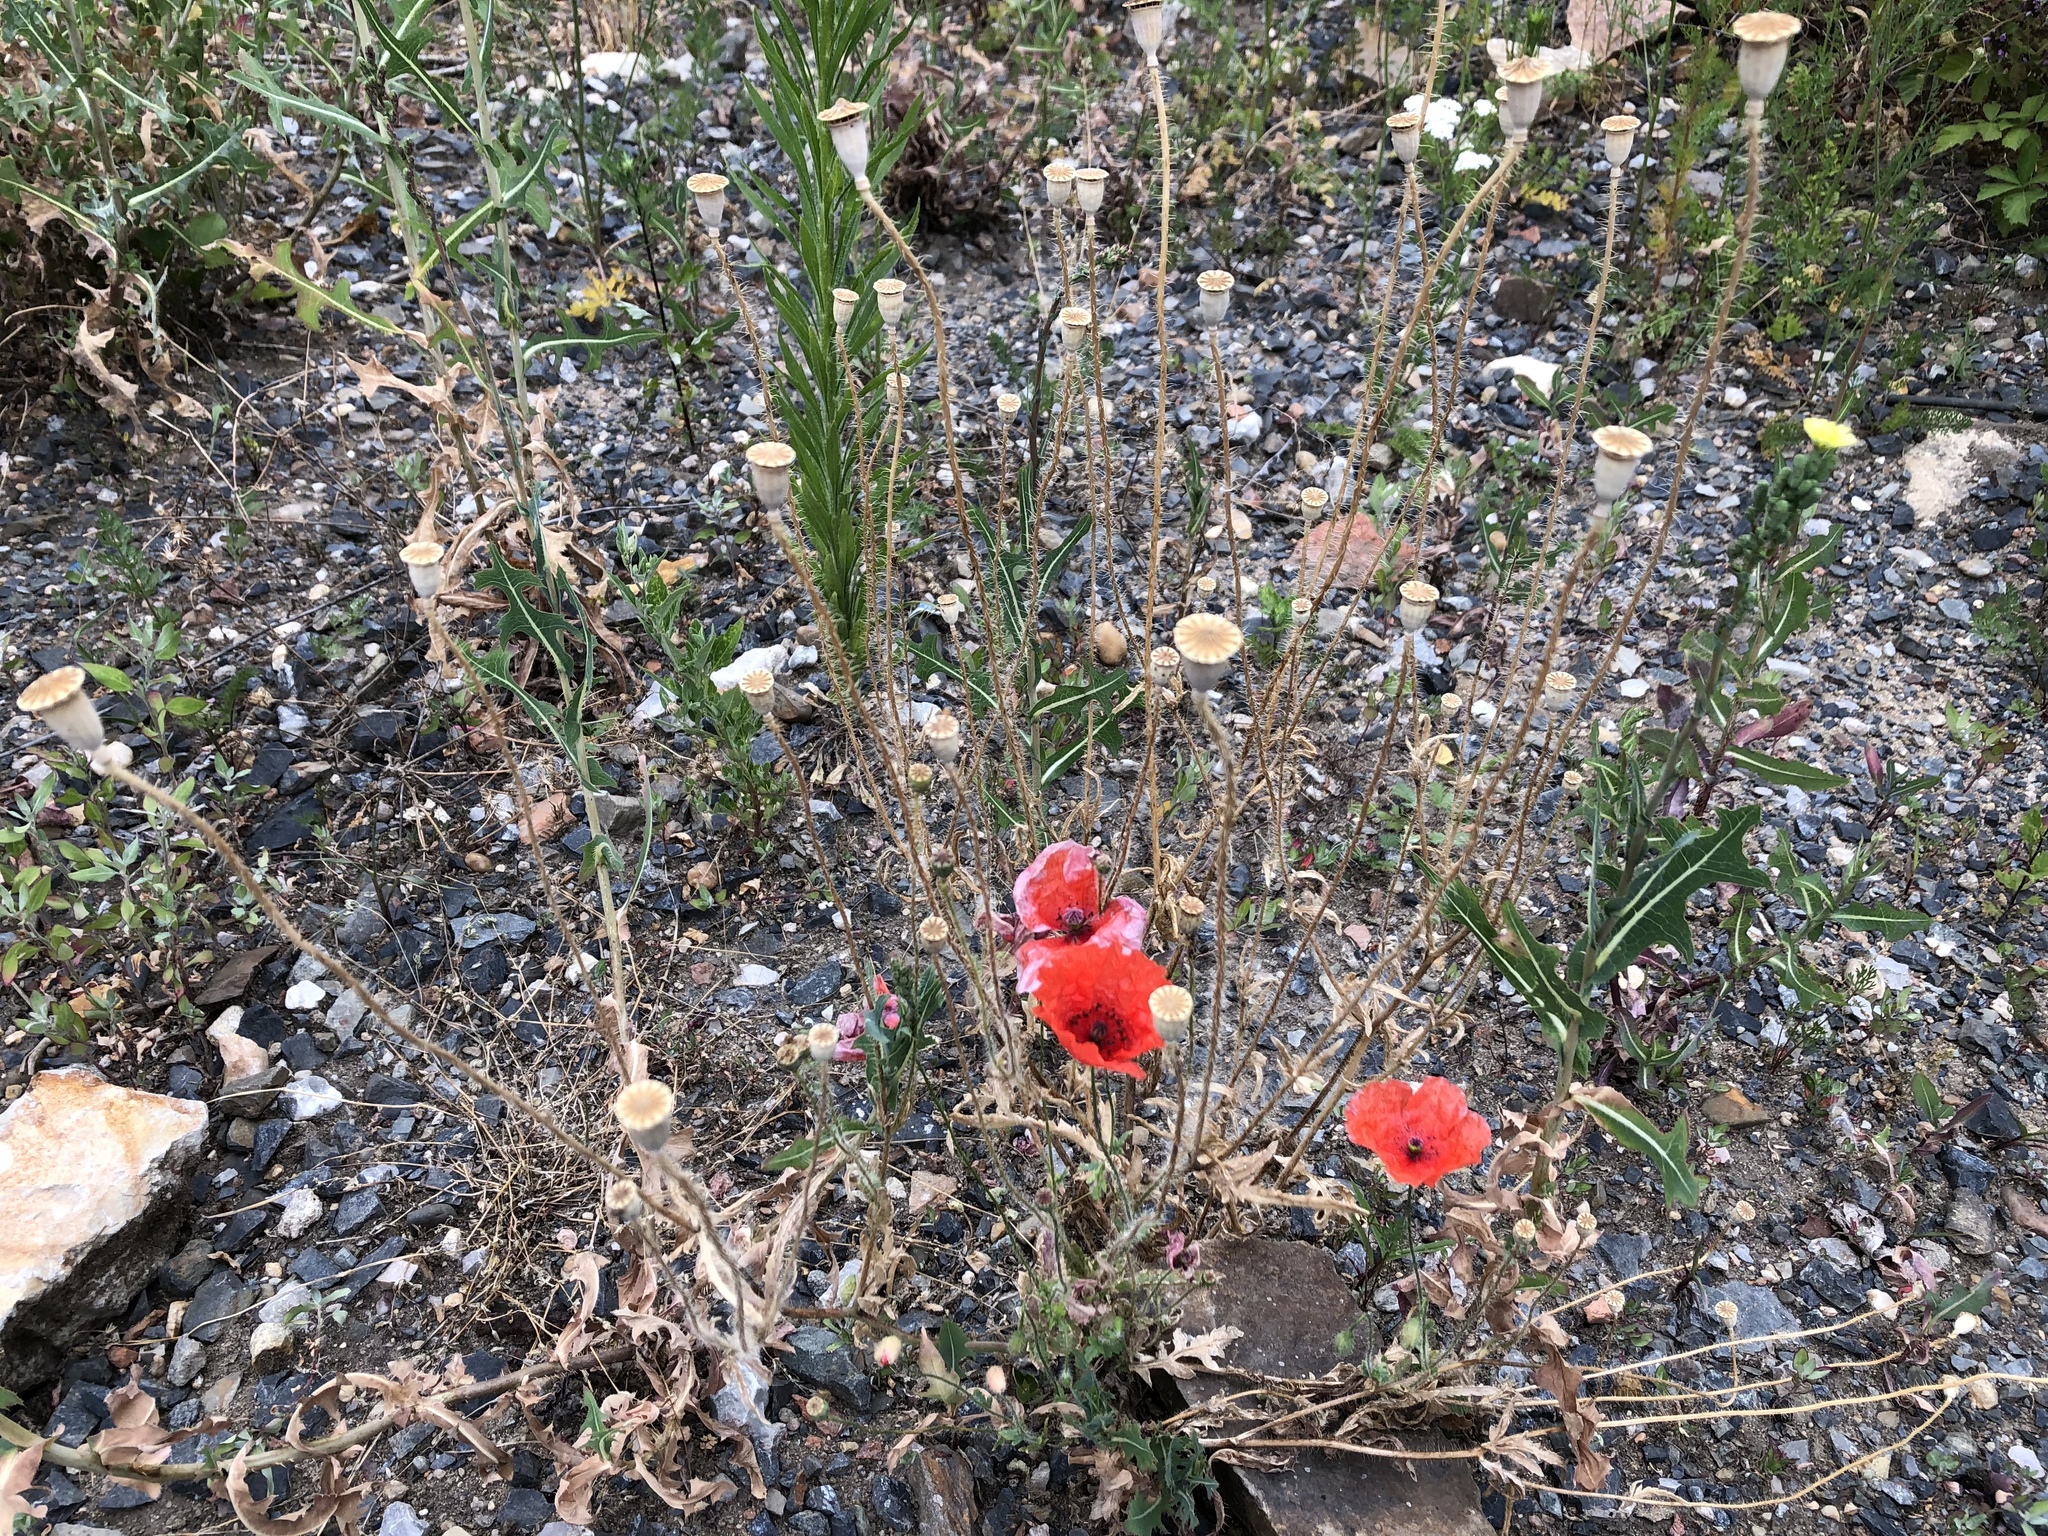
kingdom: Plantae
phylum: Tracheophyta
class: Magnoliopsida
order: Ranunculales
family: Papaveraceae
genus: Papaver
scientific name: Papaver rhoeas
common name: Corn poppy
